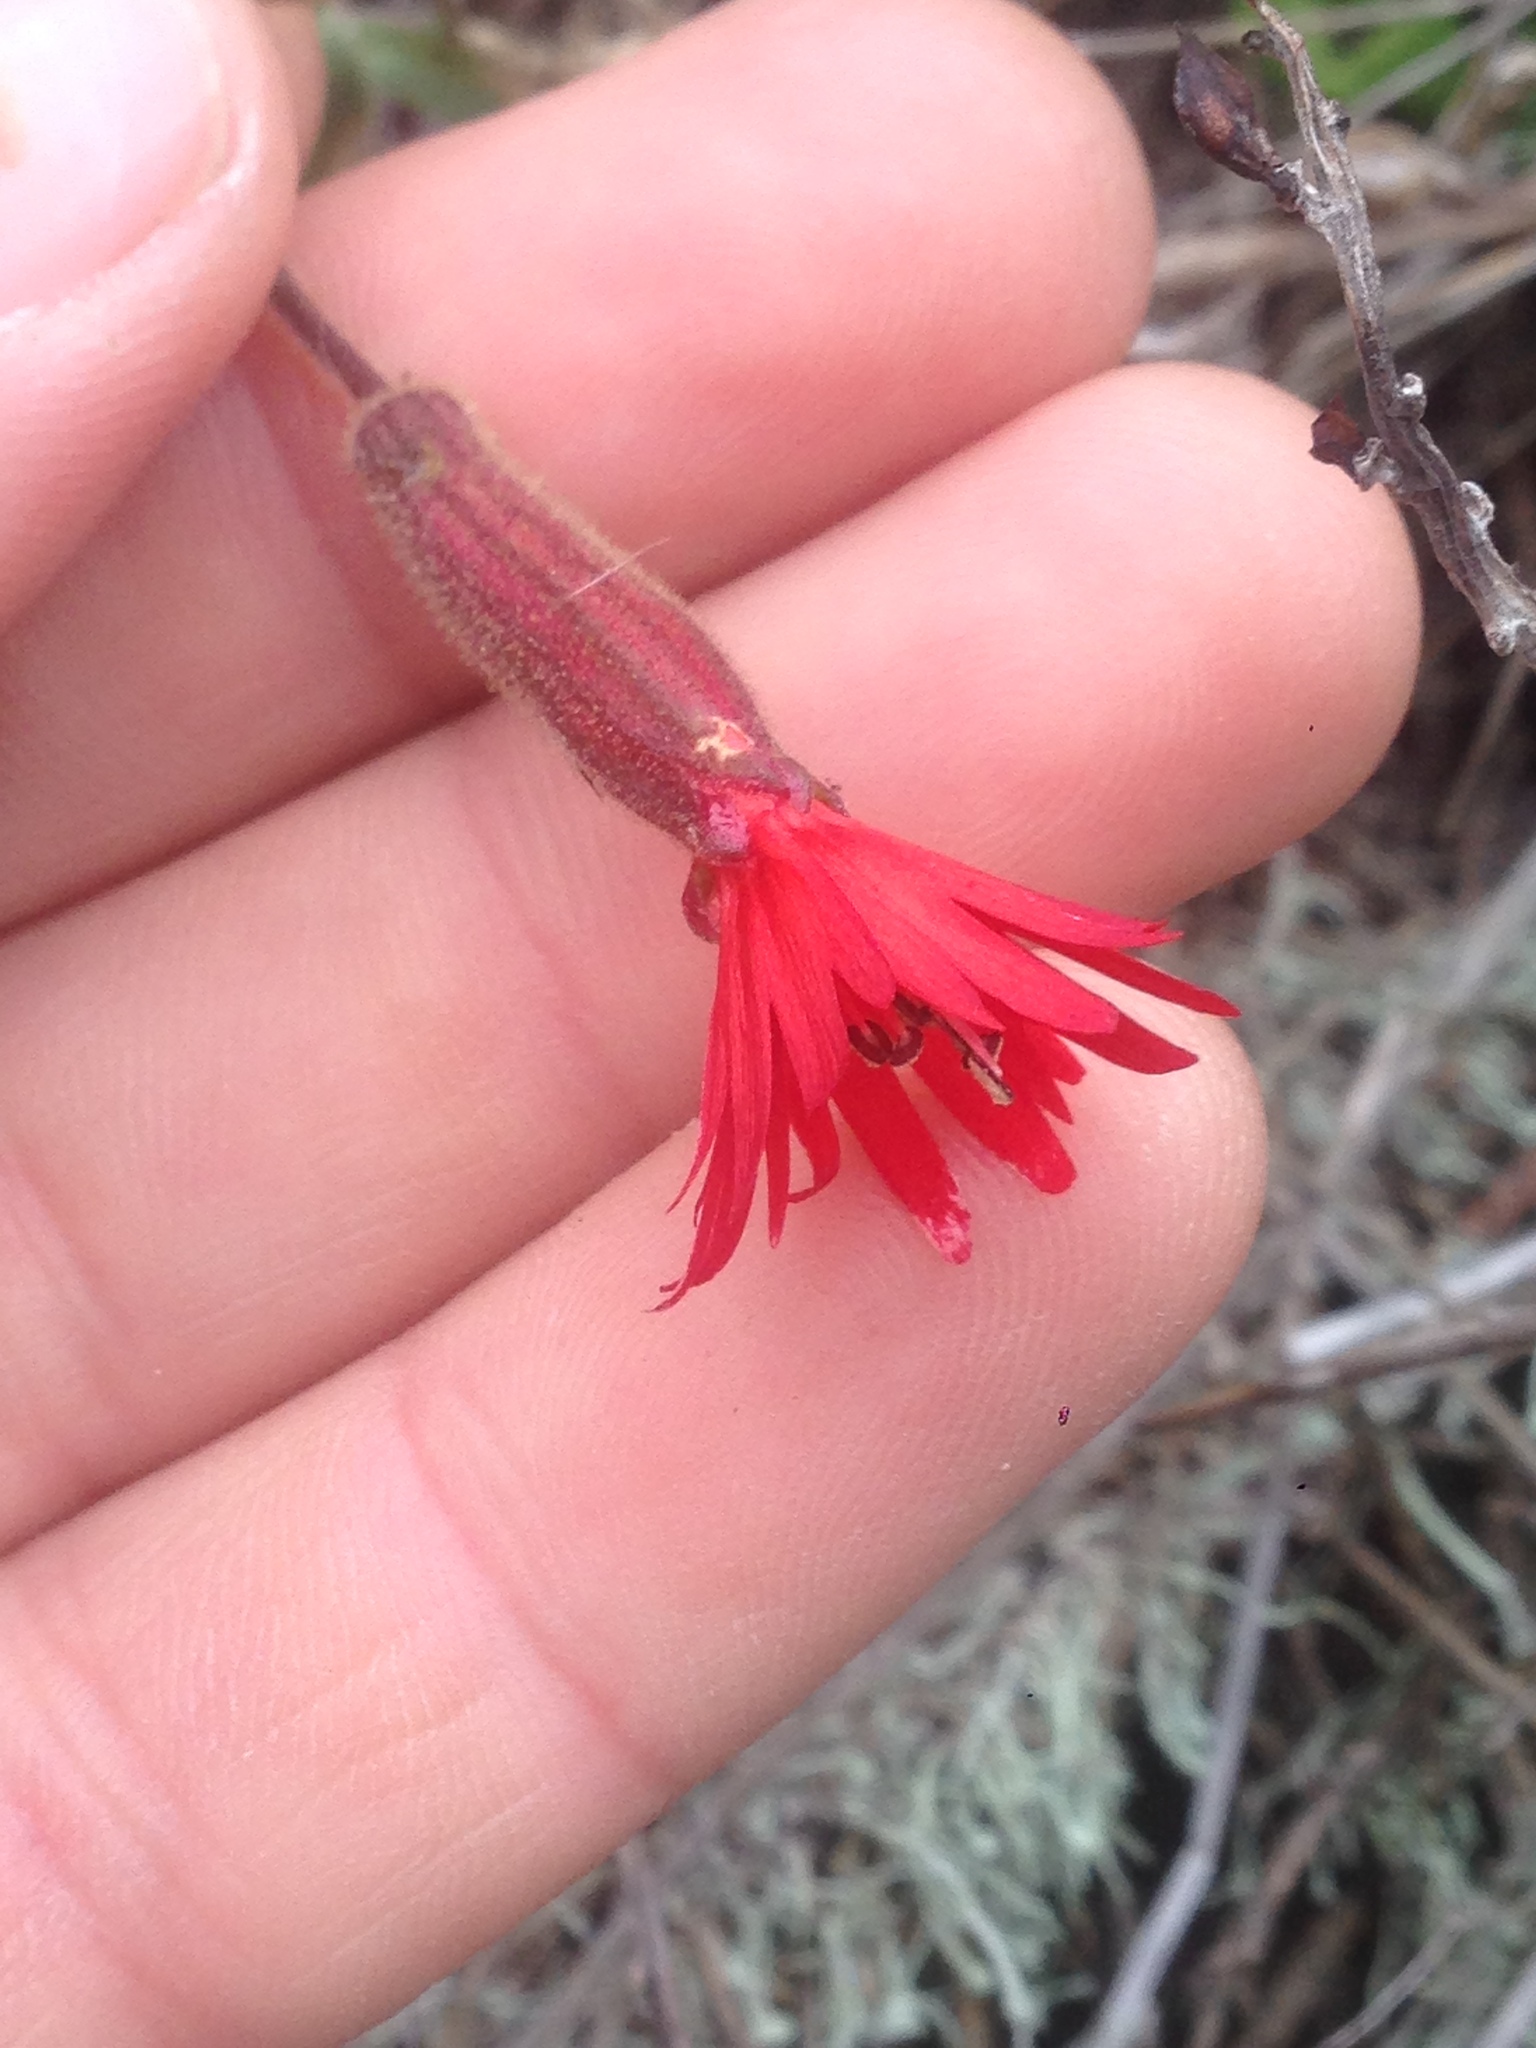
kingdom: Plantae
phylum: Tracheophyta
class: Magnoliopsida
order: Caryophyllales
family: Caryophyllaceae
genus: Silene
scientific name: Silene laciniata
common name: Indian-pink
